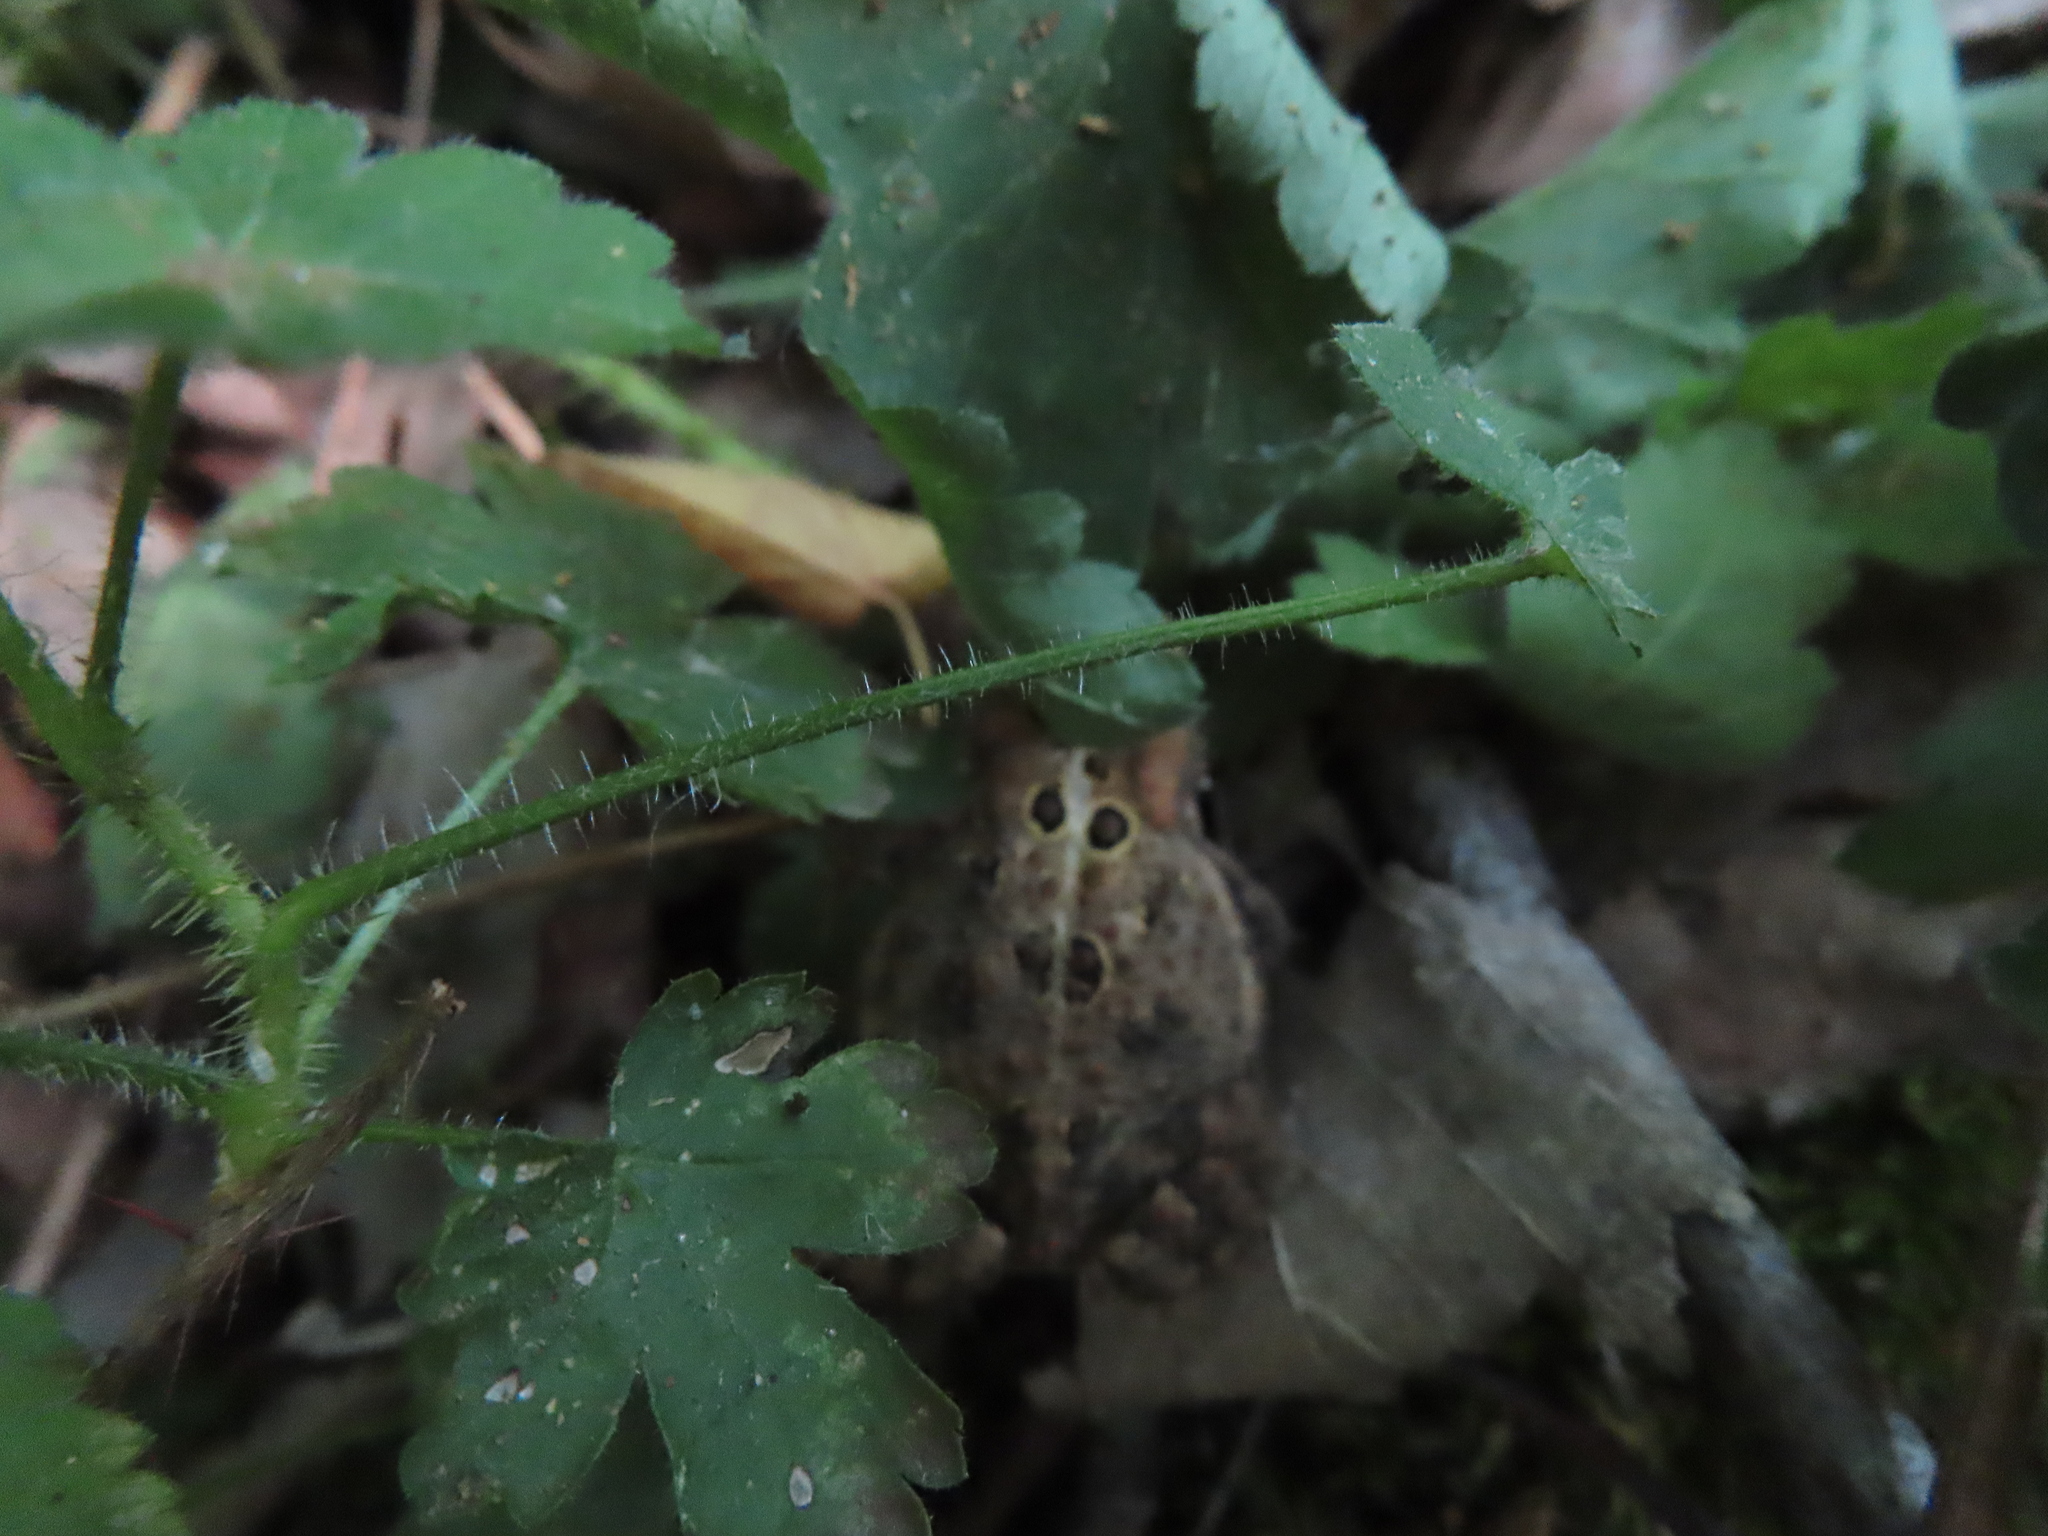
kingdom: Animalia
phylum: Chordata
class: Amphibia
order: Anura
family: Bufonidae
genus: Anaxyrus
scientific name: Anaxyrus americanus
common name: American toad
